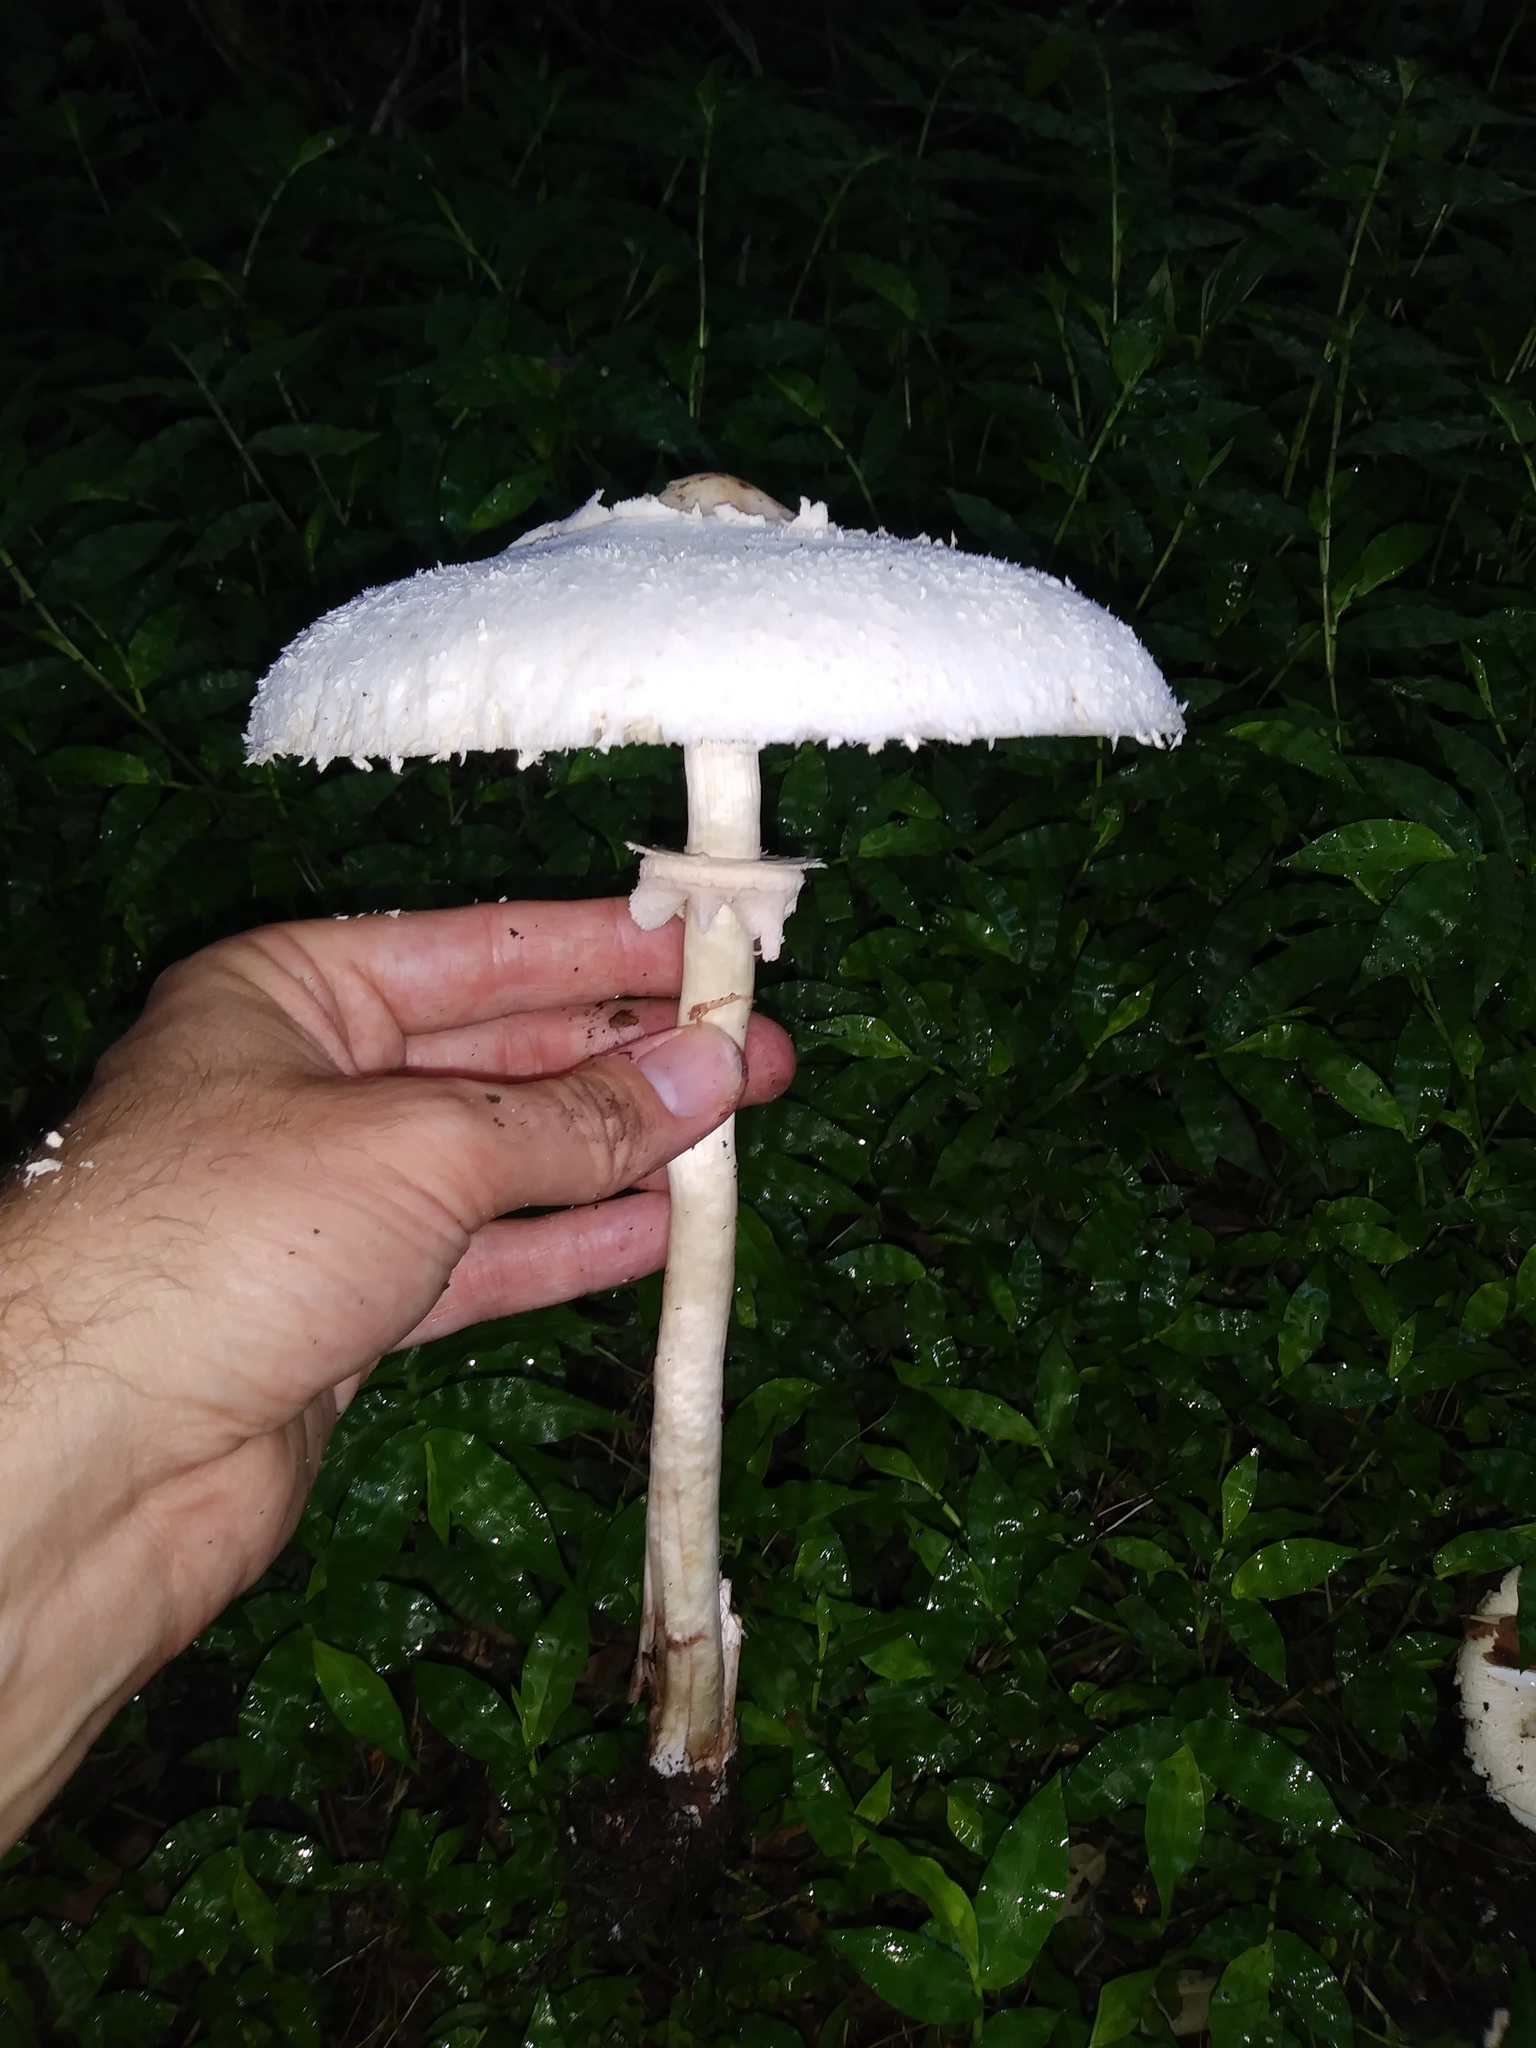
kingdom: Fungi
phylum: Basidiomycota
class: Agaricomycetes
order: Agaricales
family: Agaricaceae
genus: Chlorophyllum
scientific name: Chlorophyllum molybdites
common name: False parasol
